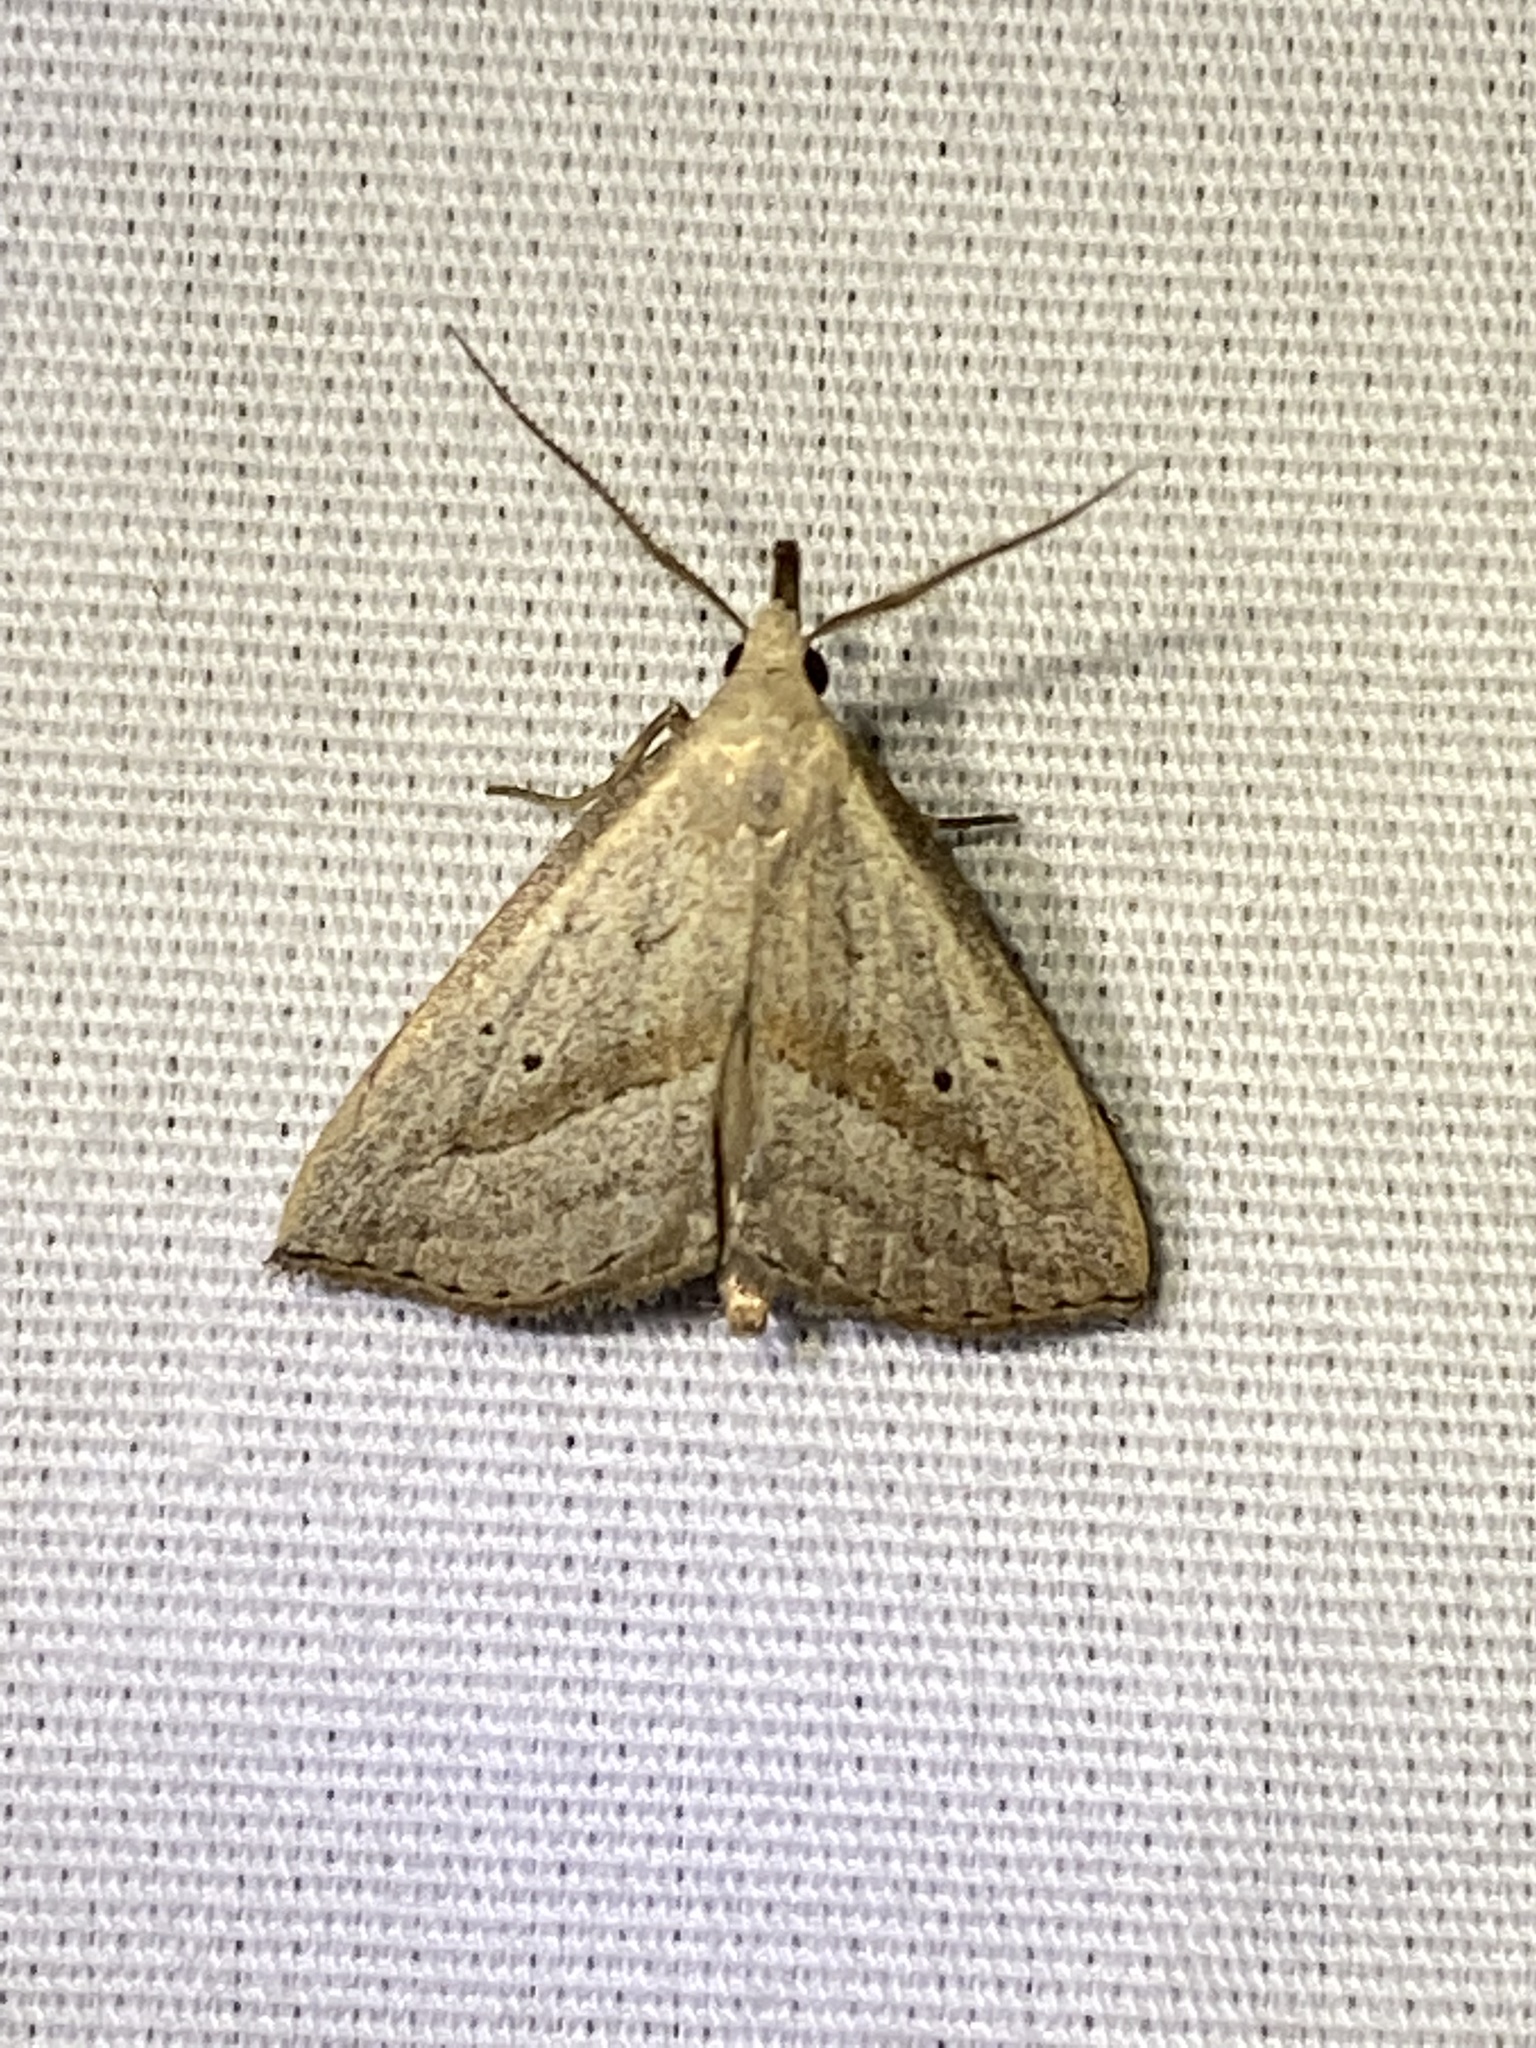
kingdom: Animalia
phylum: Arthropoda
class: Insecta
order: Lepidoptera
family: Erebidae
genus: Macrochilo
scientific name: Macrochilo hypocritalis
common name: Twin-dotted owlet
